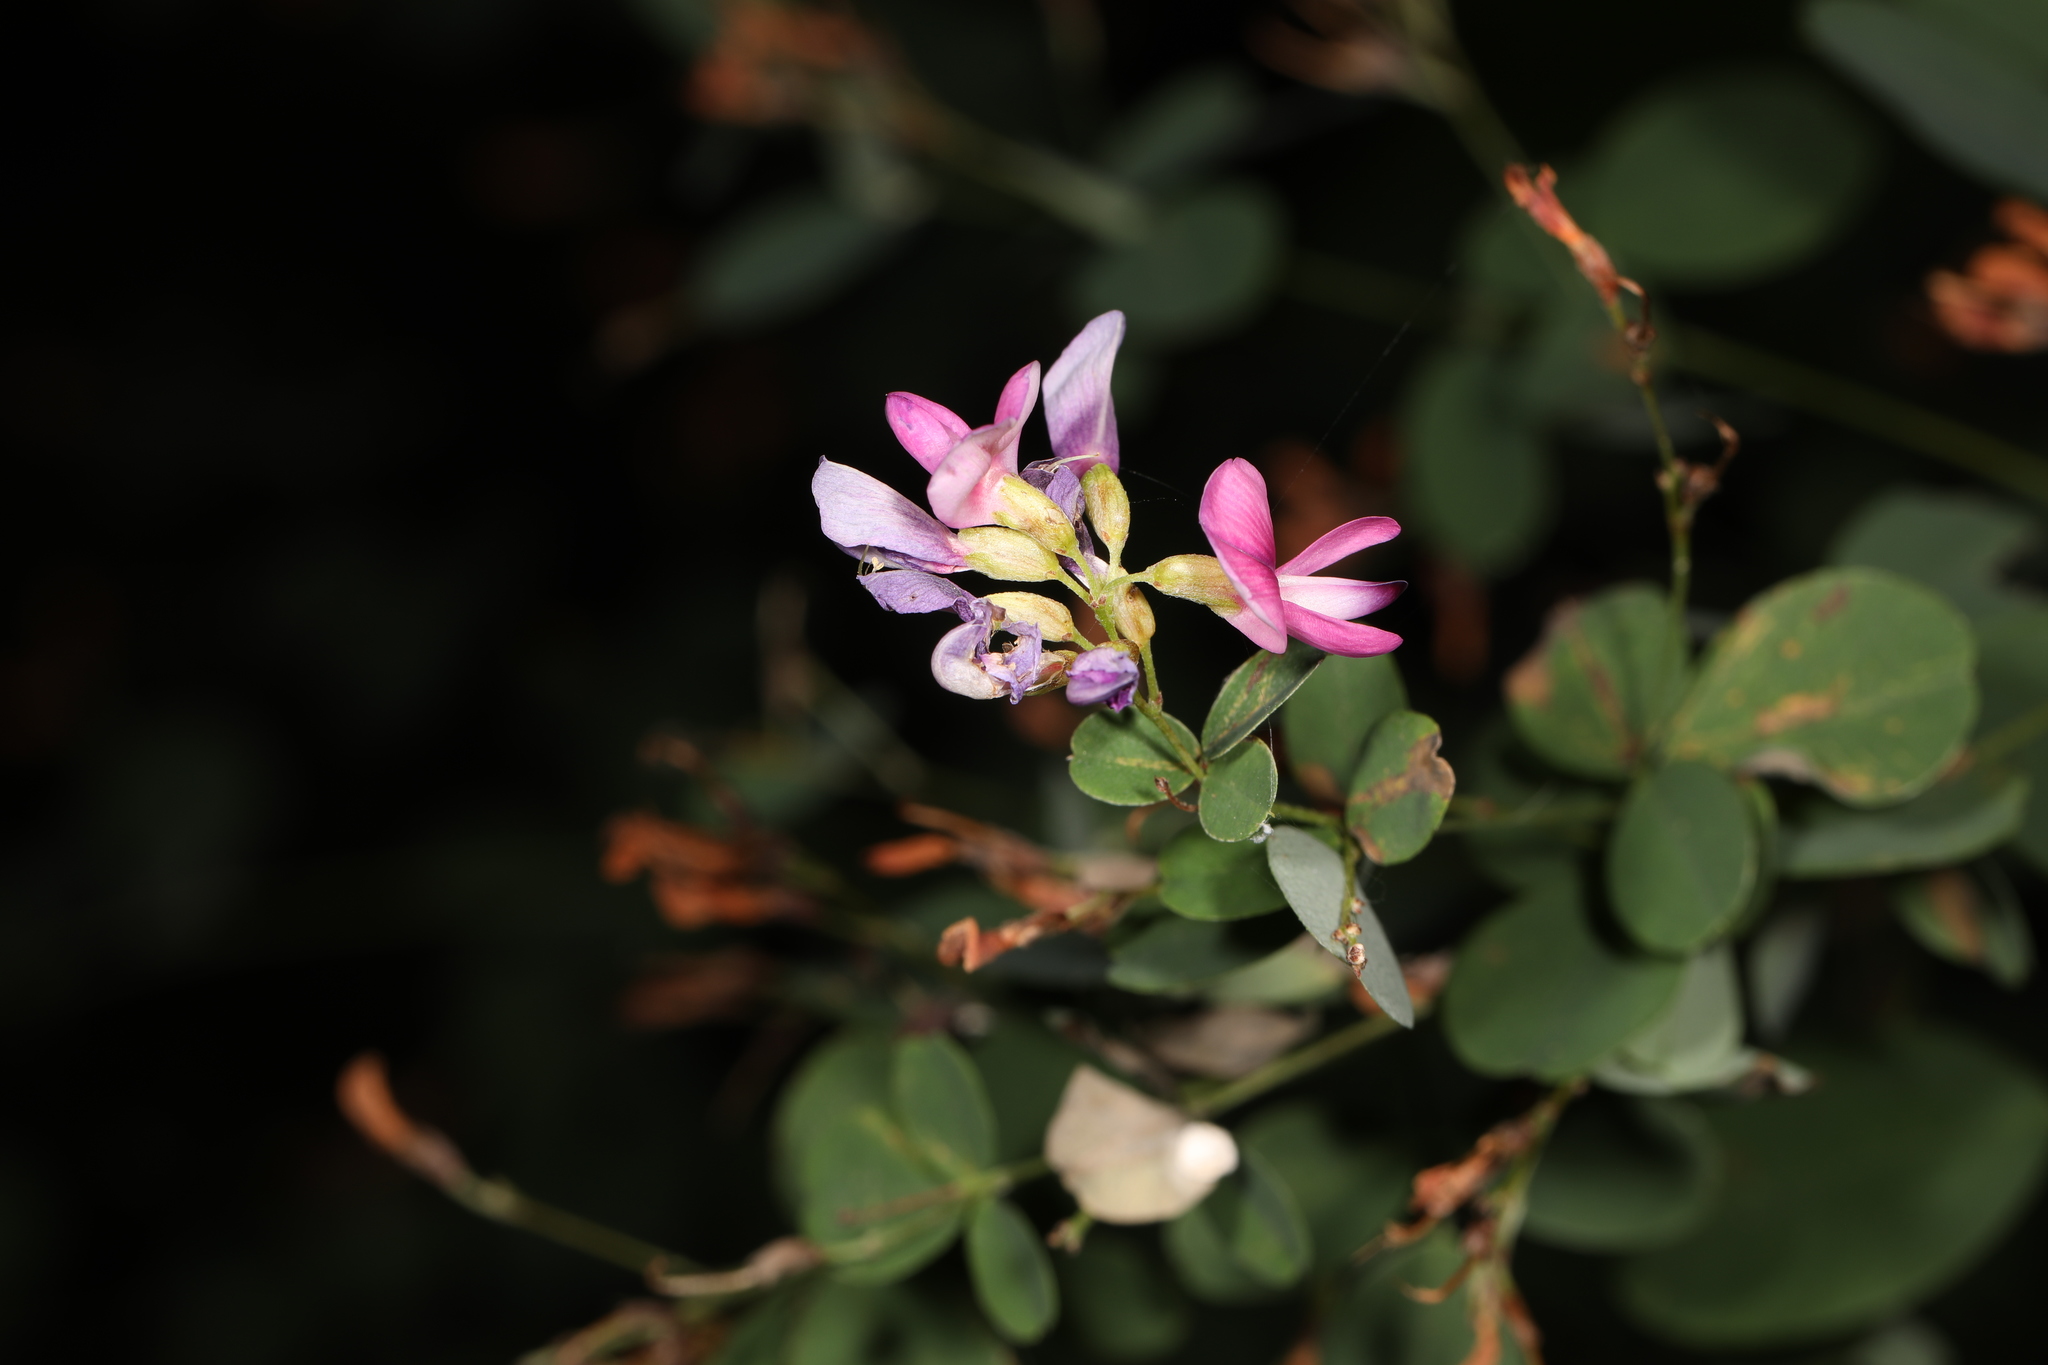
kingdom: Plantae
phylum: Tracheophyta
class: Magnoliopsida
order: Fabales
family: Fabaceae
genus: Lespedeza
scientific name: Lespedeza bicolor
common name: Shrub lespedeza
